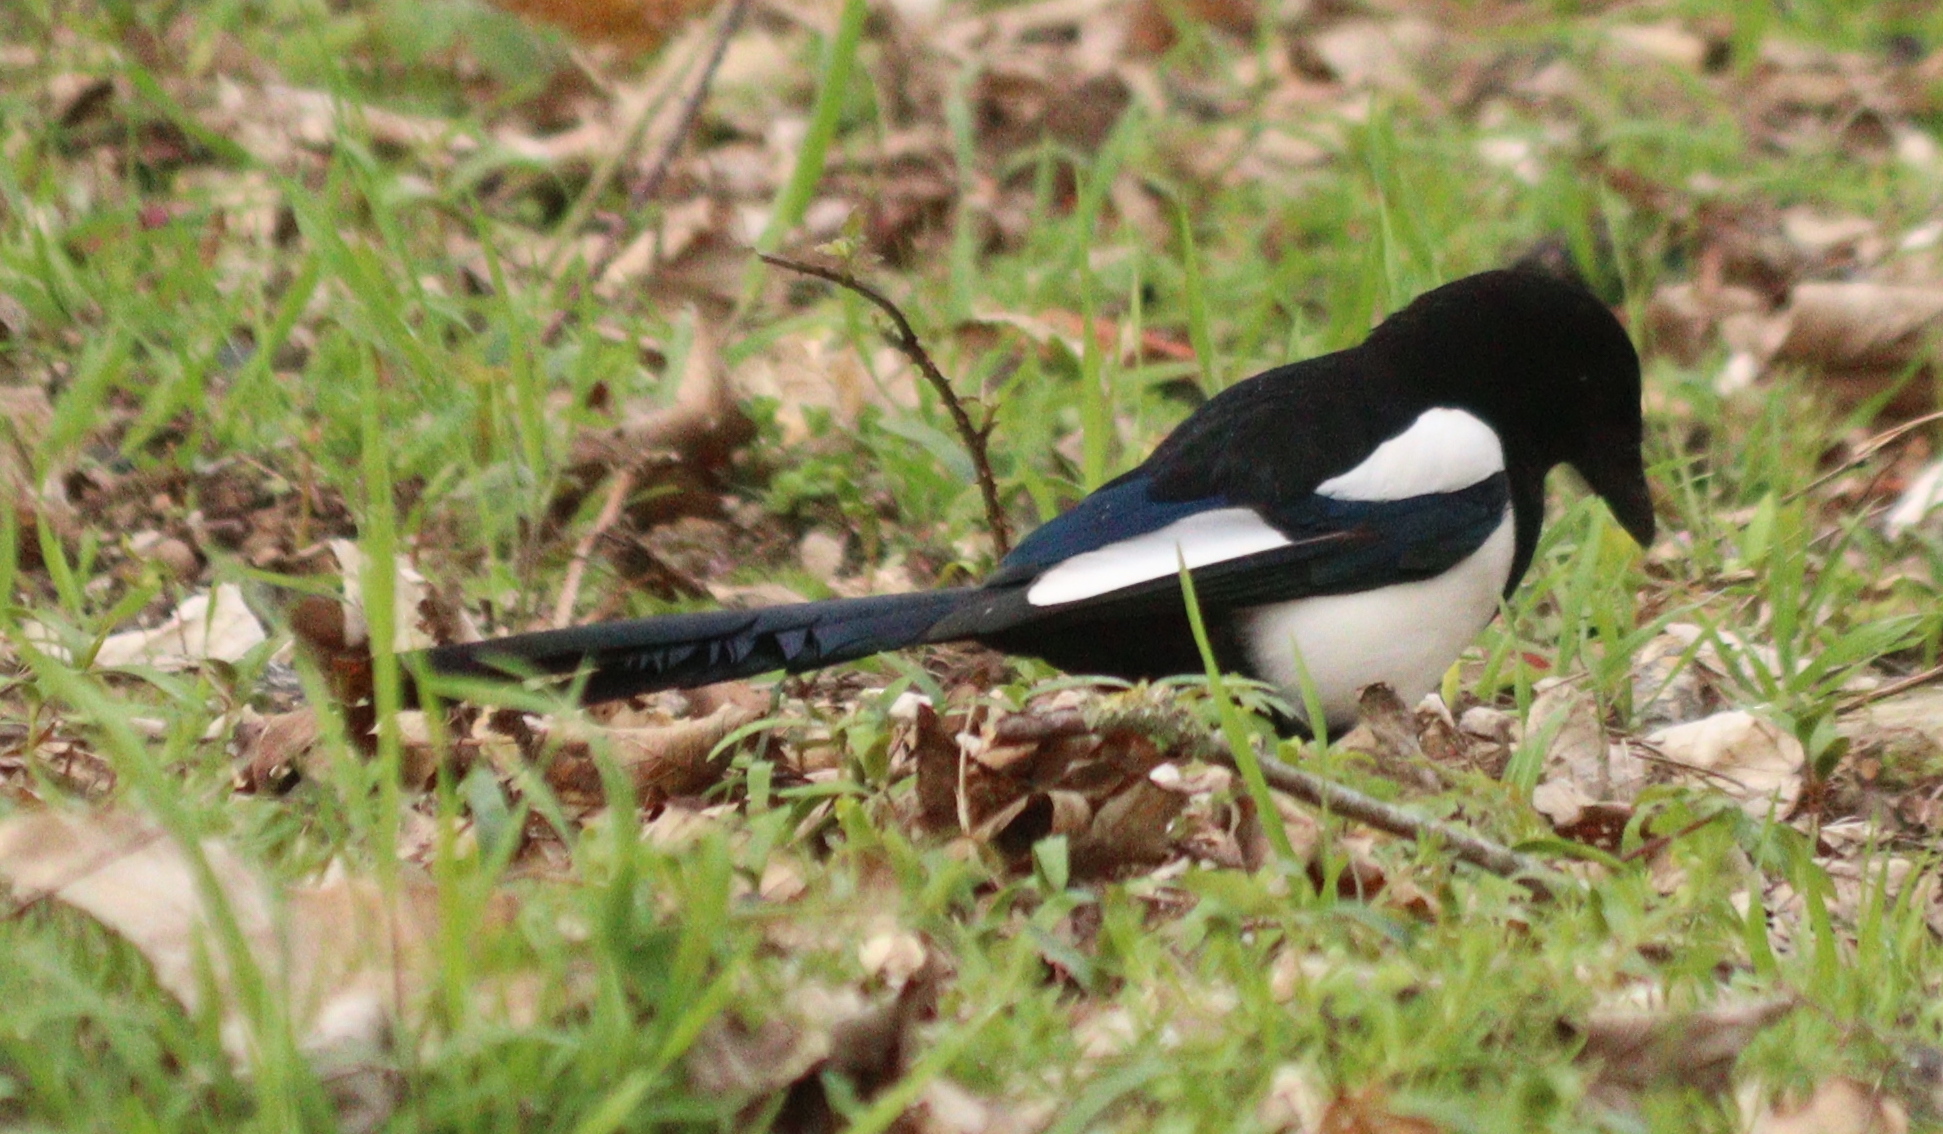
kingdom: Animalia
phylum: Chordata
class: Aves
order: Passeriformes
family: Corvidae
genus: Pica
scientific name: Pica pica
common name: Eurasian magpie
